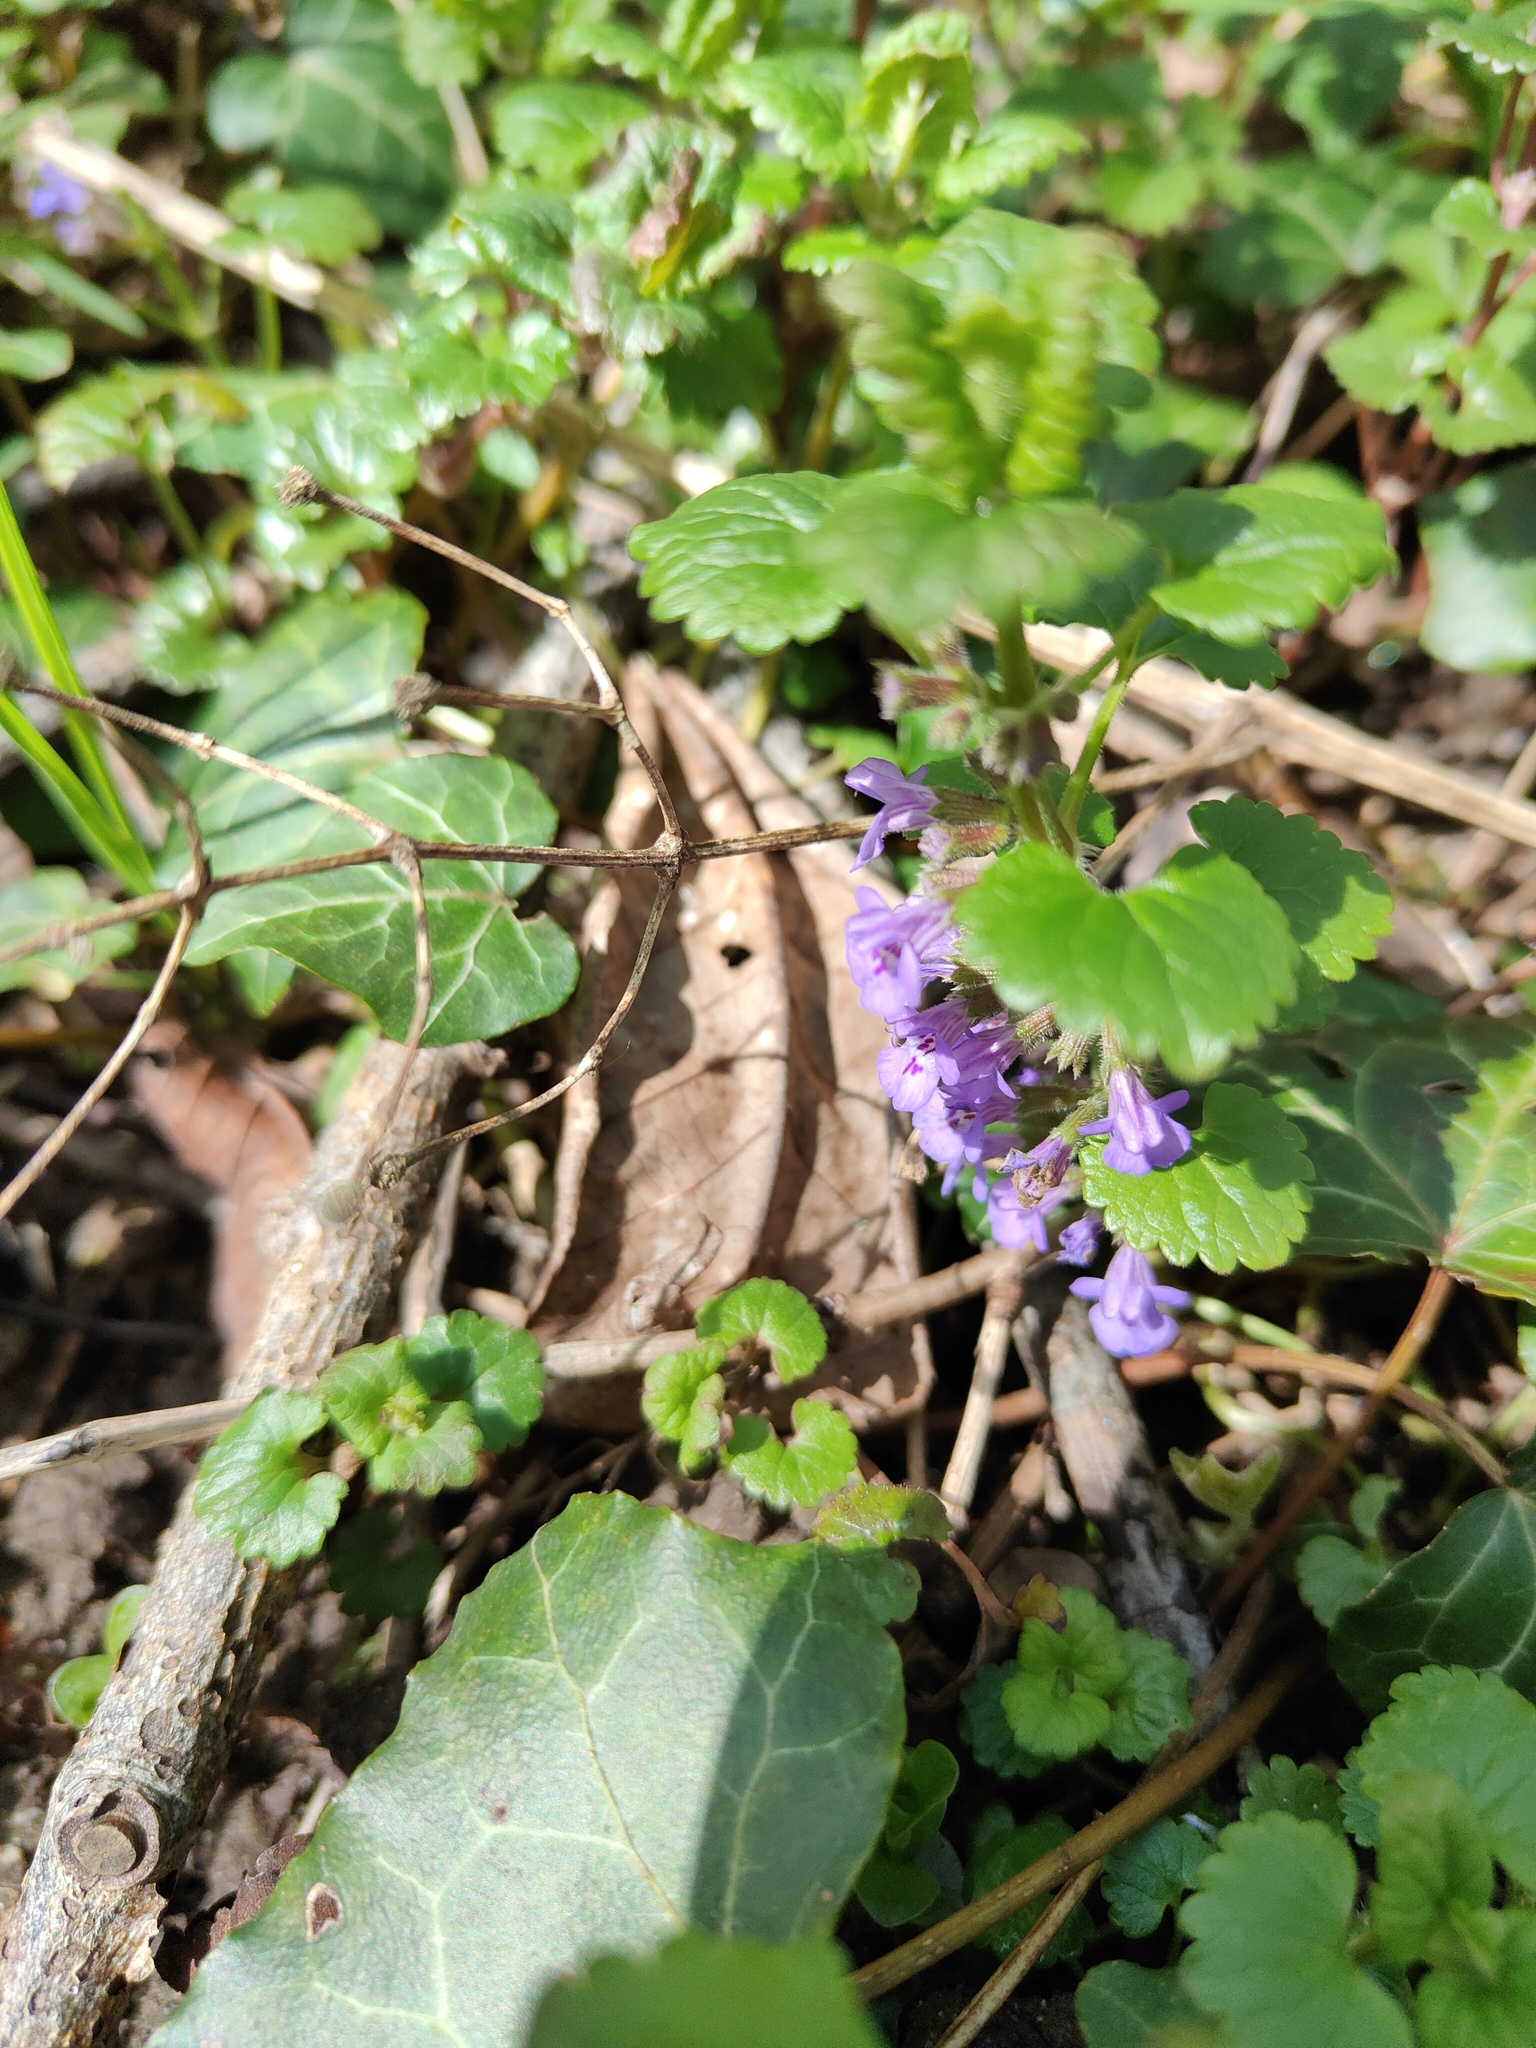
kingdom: Plantae
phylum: Tracheophyta
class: Magnoliopsida
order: Lamiales
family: Lamiaceae
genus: Glechoma
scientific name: Glechoma hederacea
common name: Ground ivy
